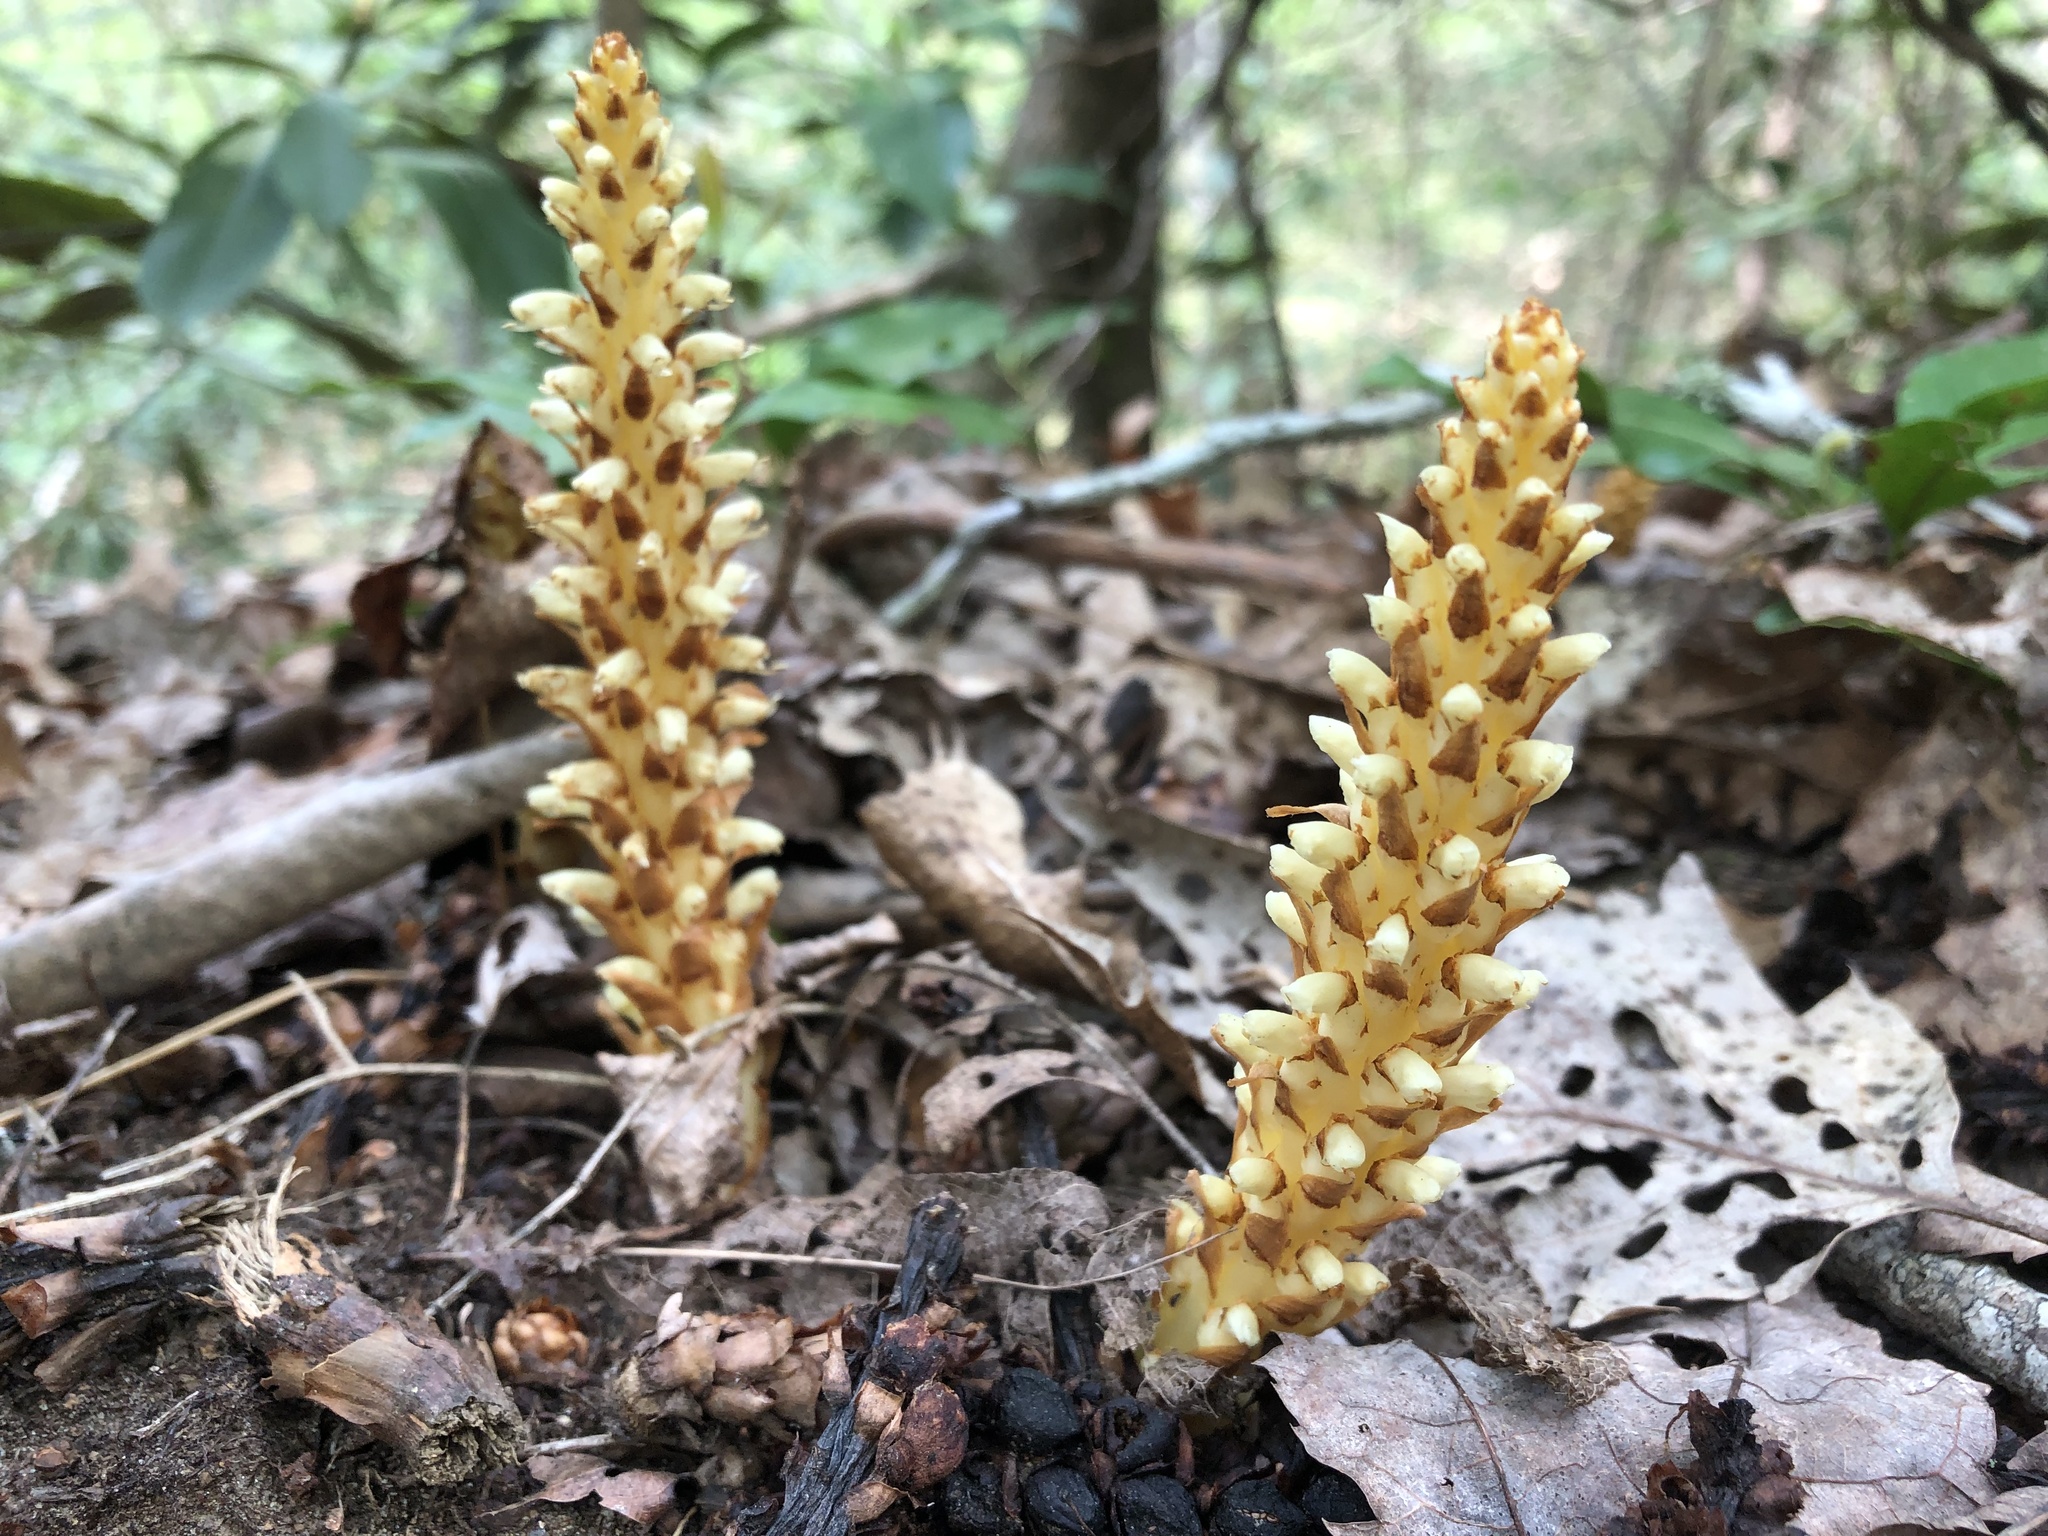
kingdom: Plantae
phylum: Tracheophyta
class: Magnoliopsida
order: Lamiales
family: Orobanchaceae
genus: Conopholis
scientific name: Conopholis americana
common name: American cancer-root
